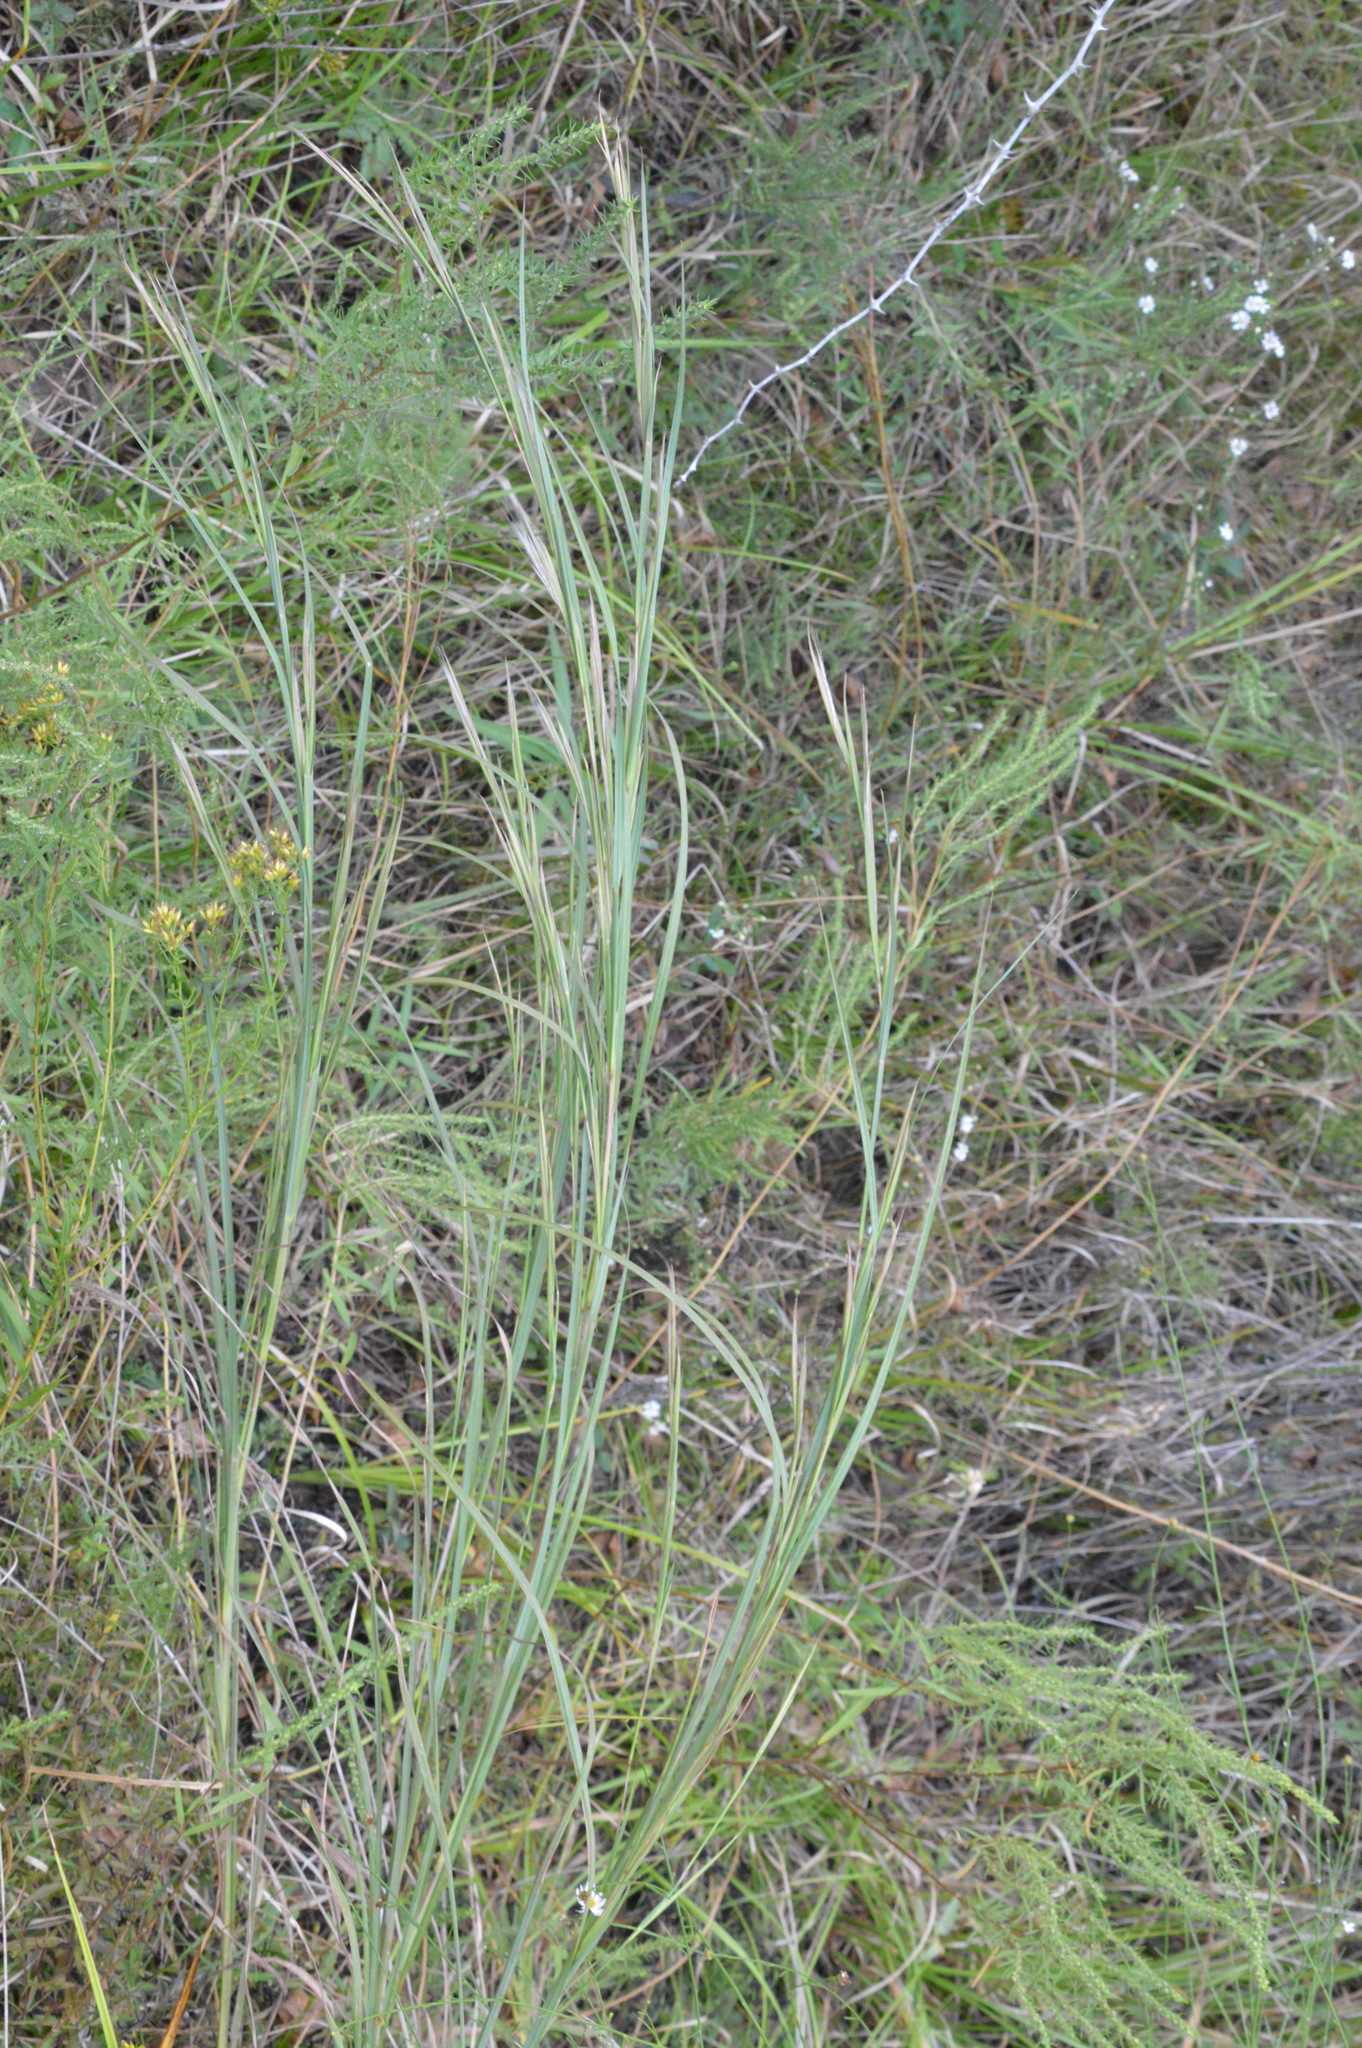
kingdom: Plantae
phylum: Tracheophyta
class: Liliopsida
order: Poales
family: Poaceae
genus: Andropogon
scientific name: Andropogon virginicus
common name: Broomsedge bluestem
